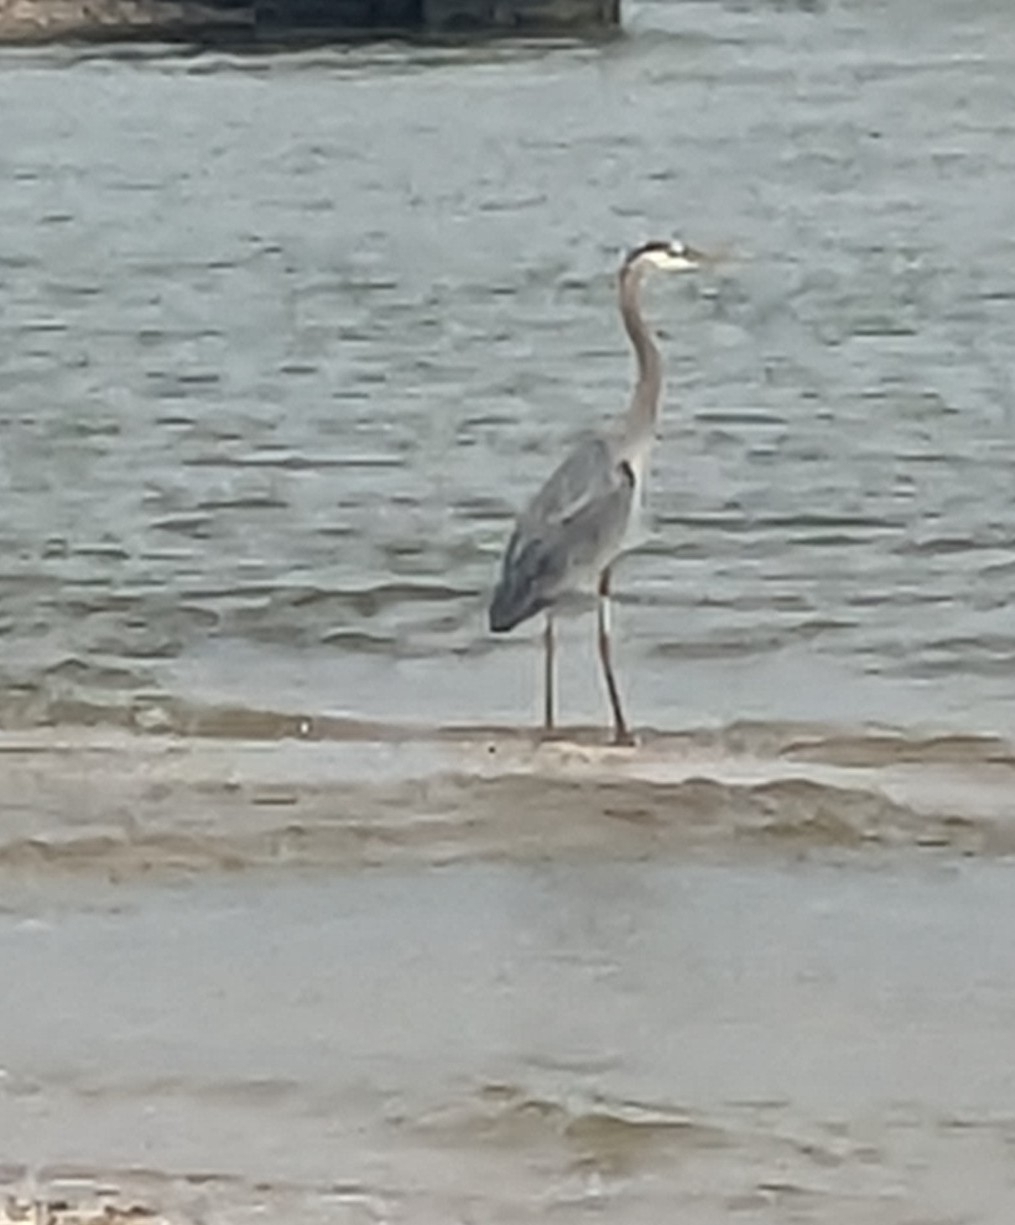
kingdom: Animalia
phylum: Chordata
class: Aves
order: Pelecaniformes
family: Ardeidae
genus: Ardea
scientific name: Ardea herodias
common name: Great blue heron
